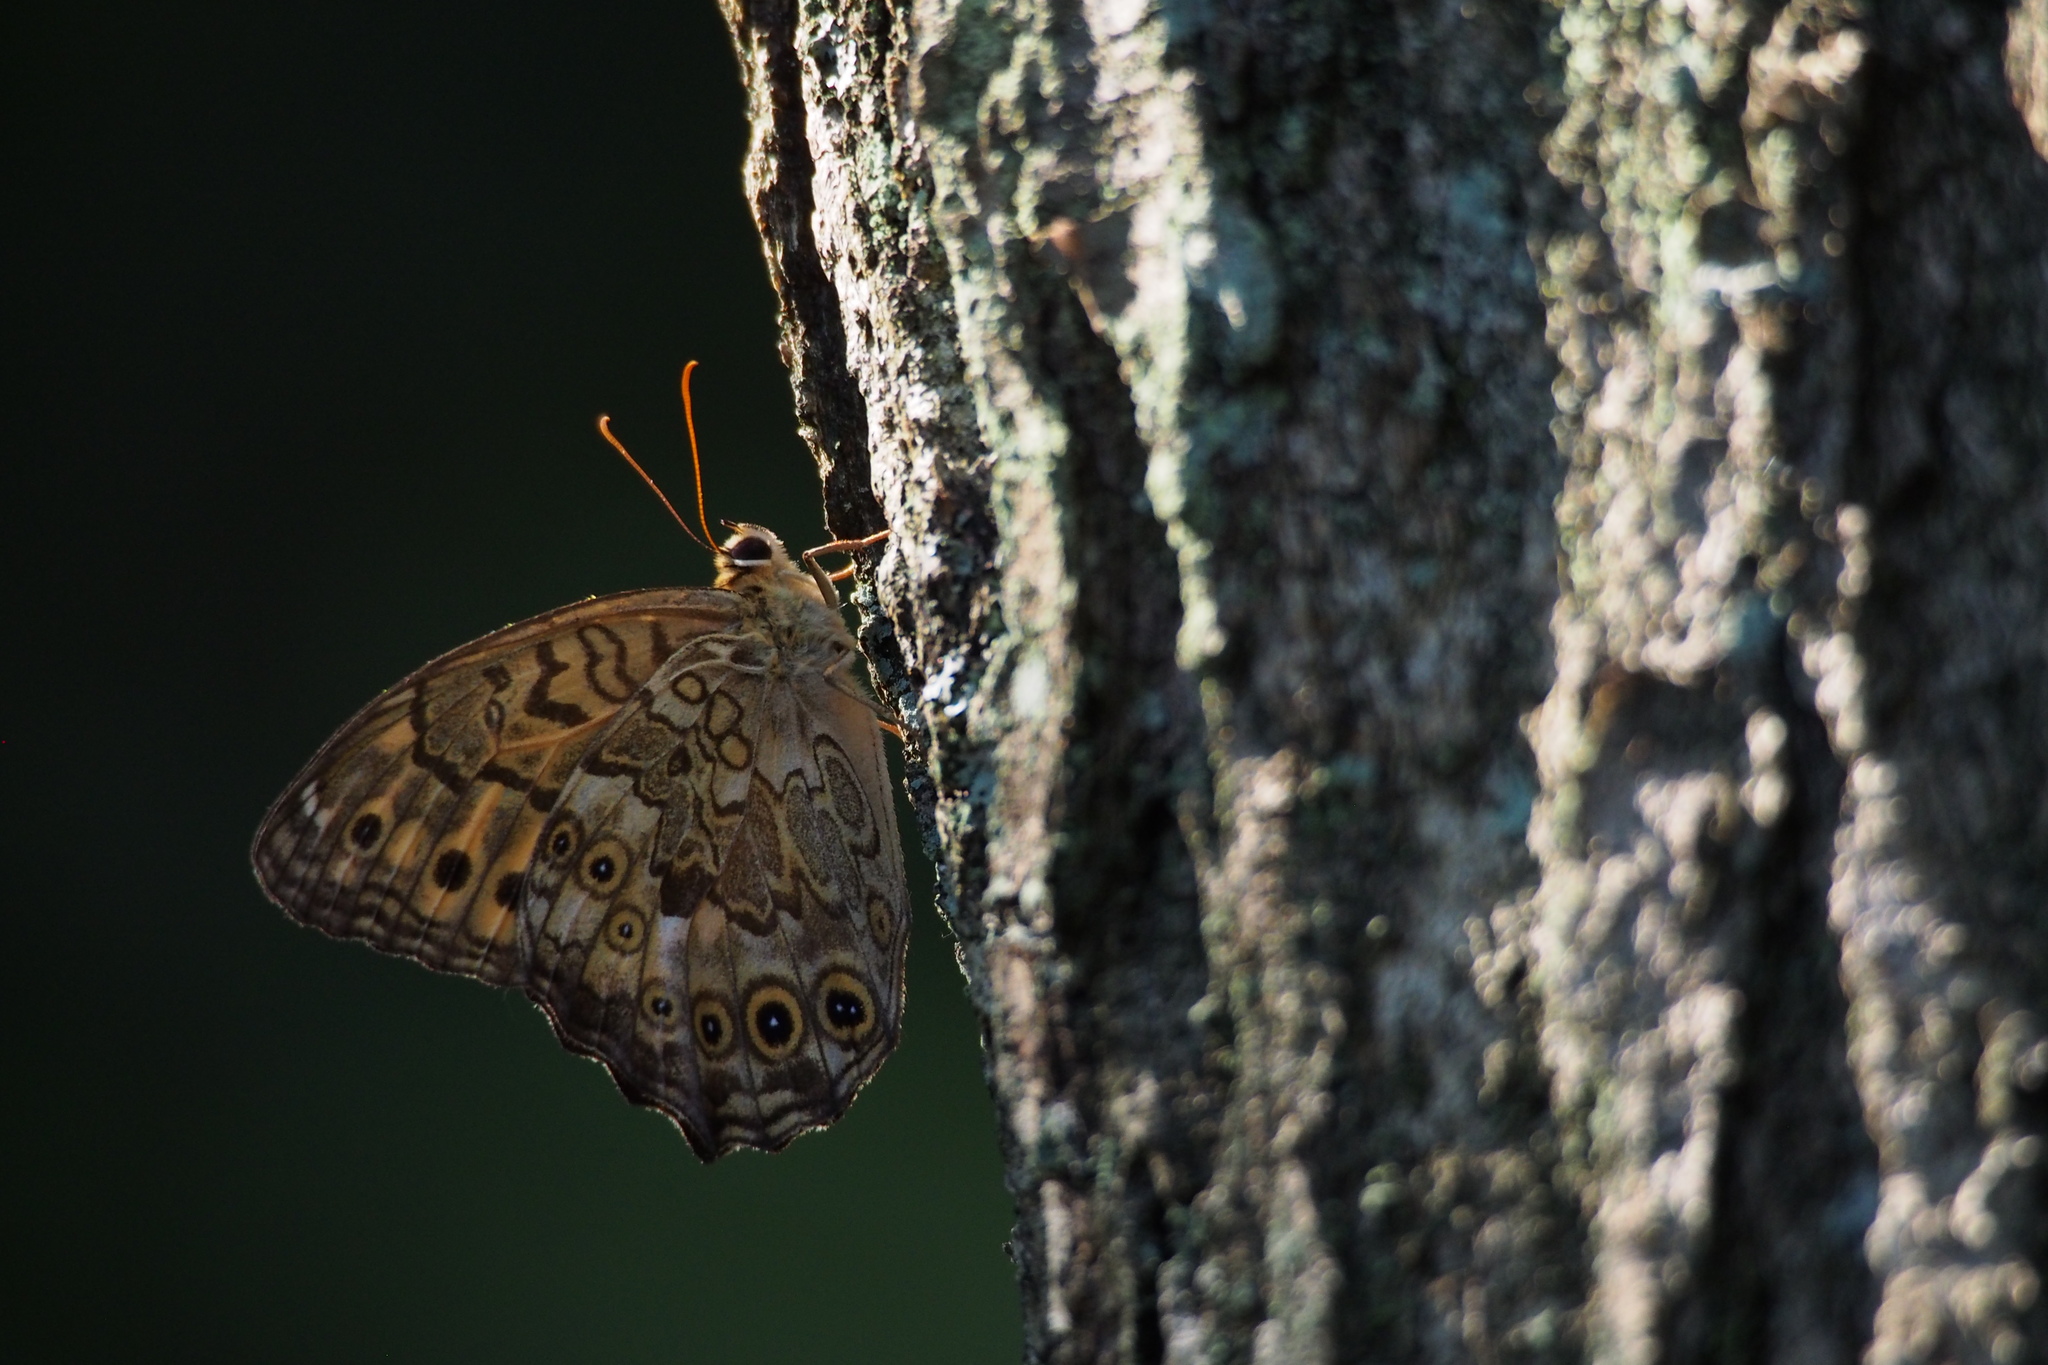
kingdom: Animalia
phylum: Arthropoda
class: Insecta
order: Lepidoptera
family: Nymphalidae
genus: Neope
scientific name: Neope goschkevitschii
